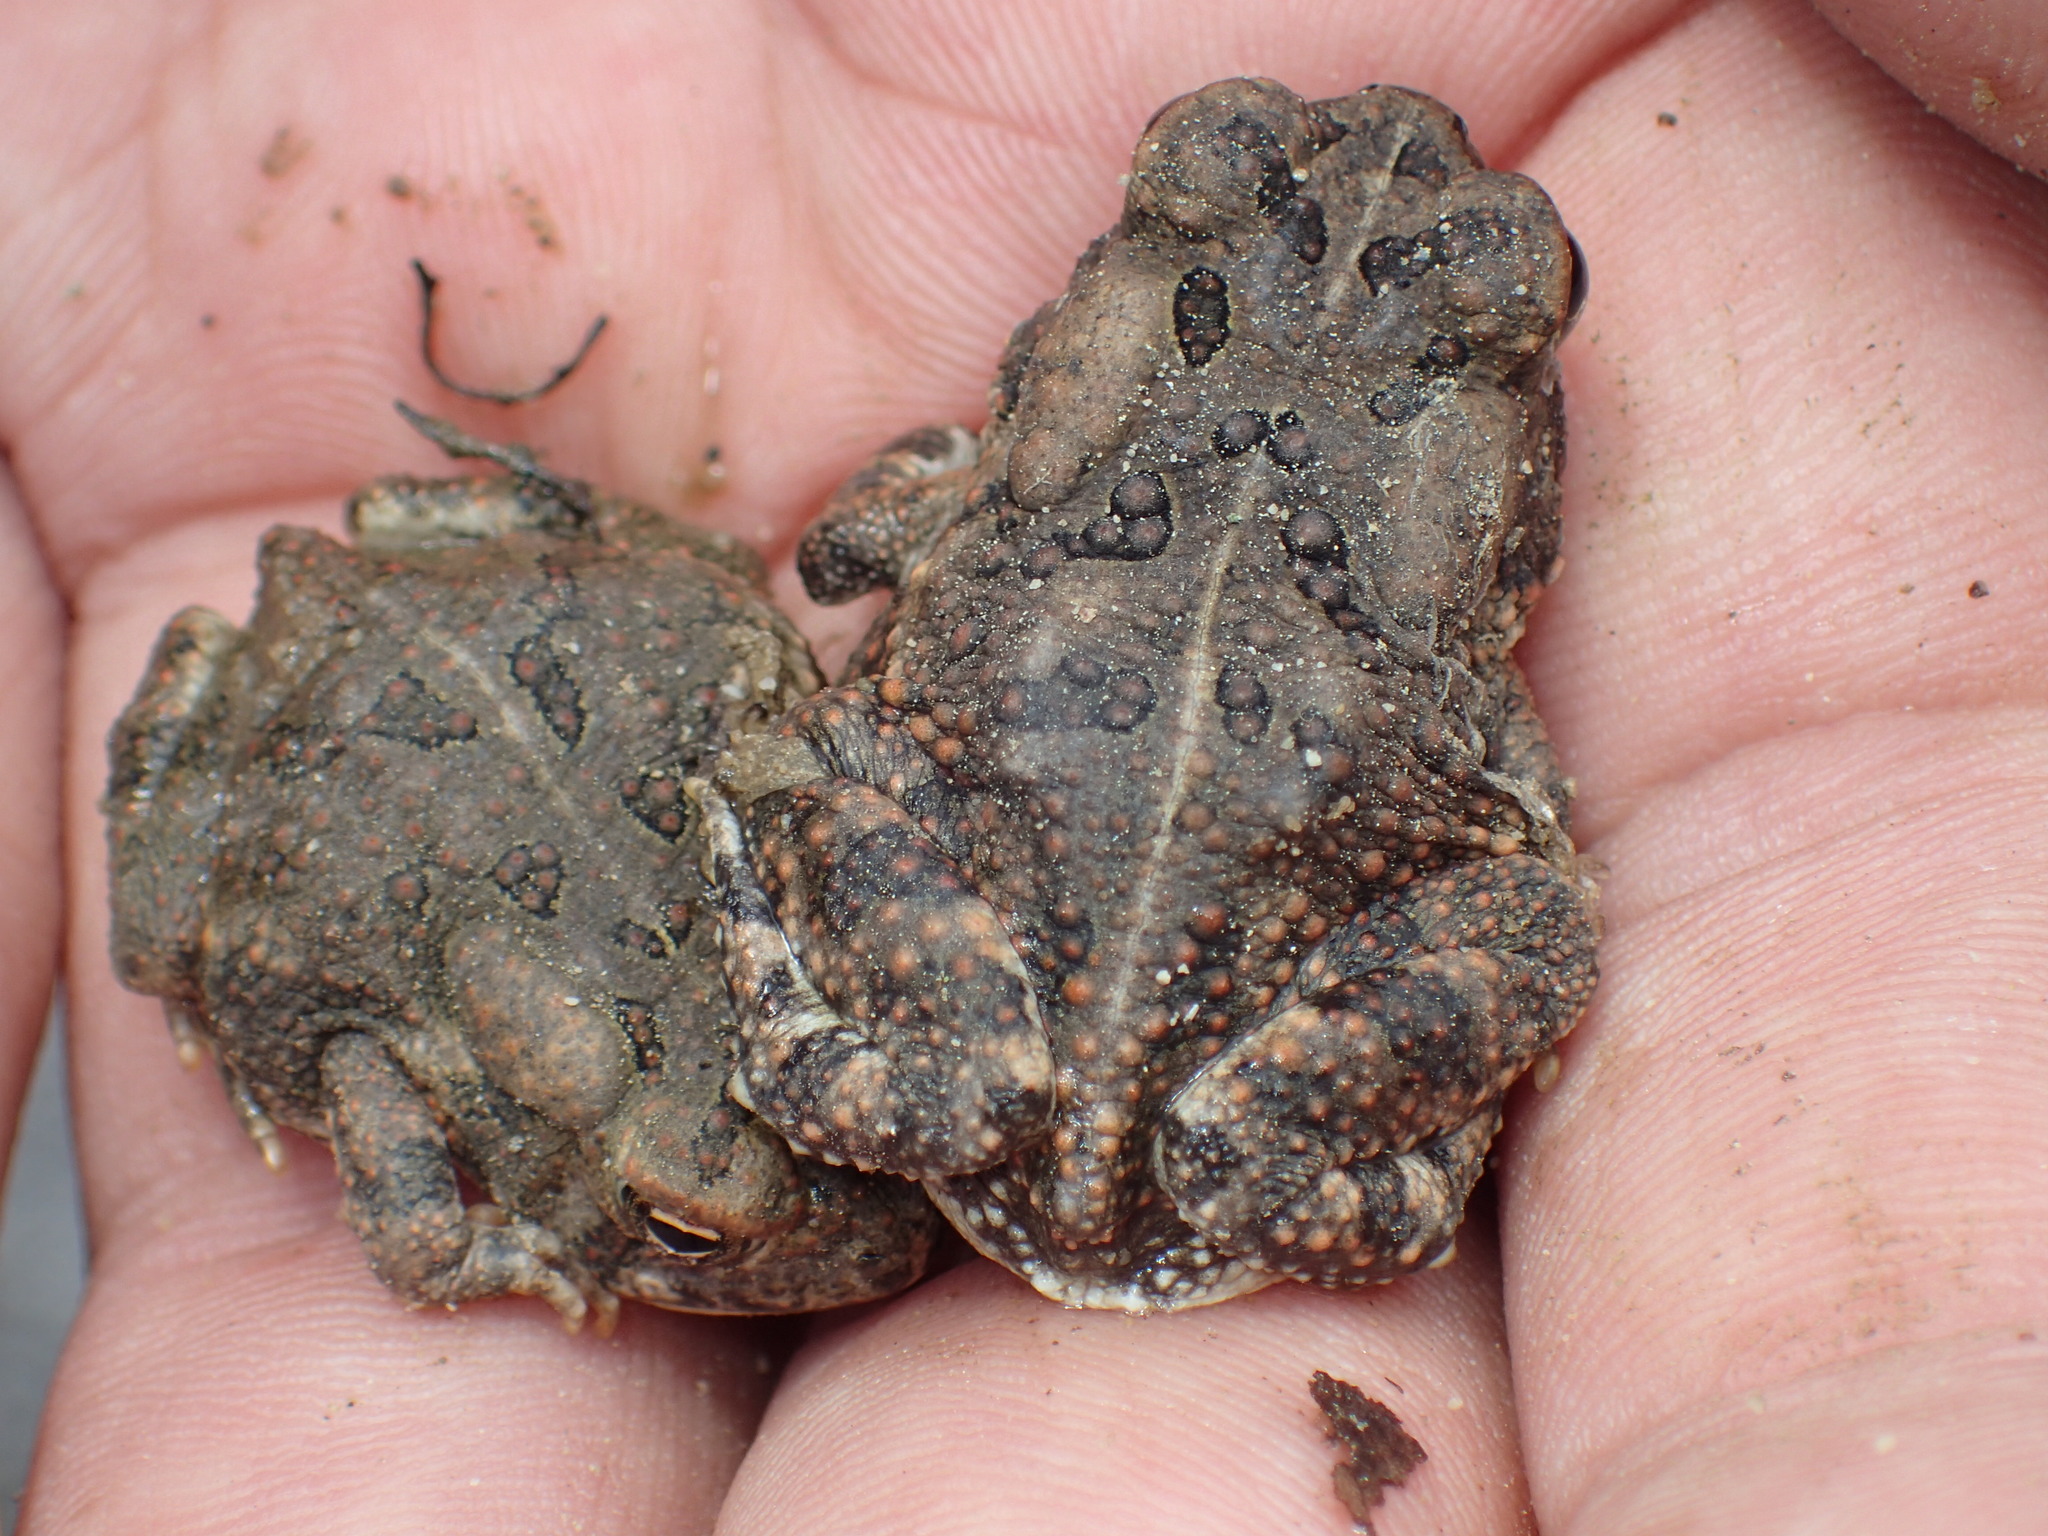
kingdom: Animalia
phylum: Chordata
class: Amphibia
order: Anura
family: Bufonidae
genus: Anaxyrus
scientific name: Anaxyrus fowleri
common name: Fowler's toad
